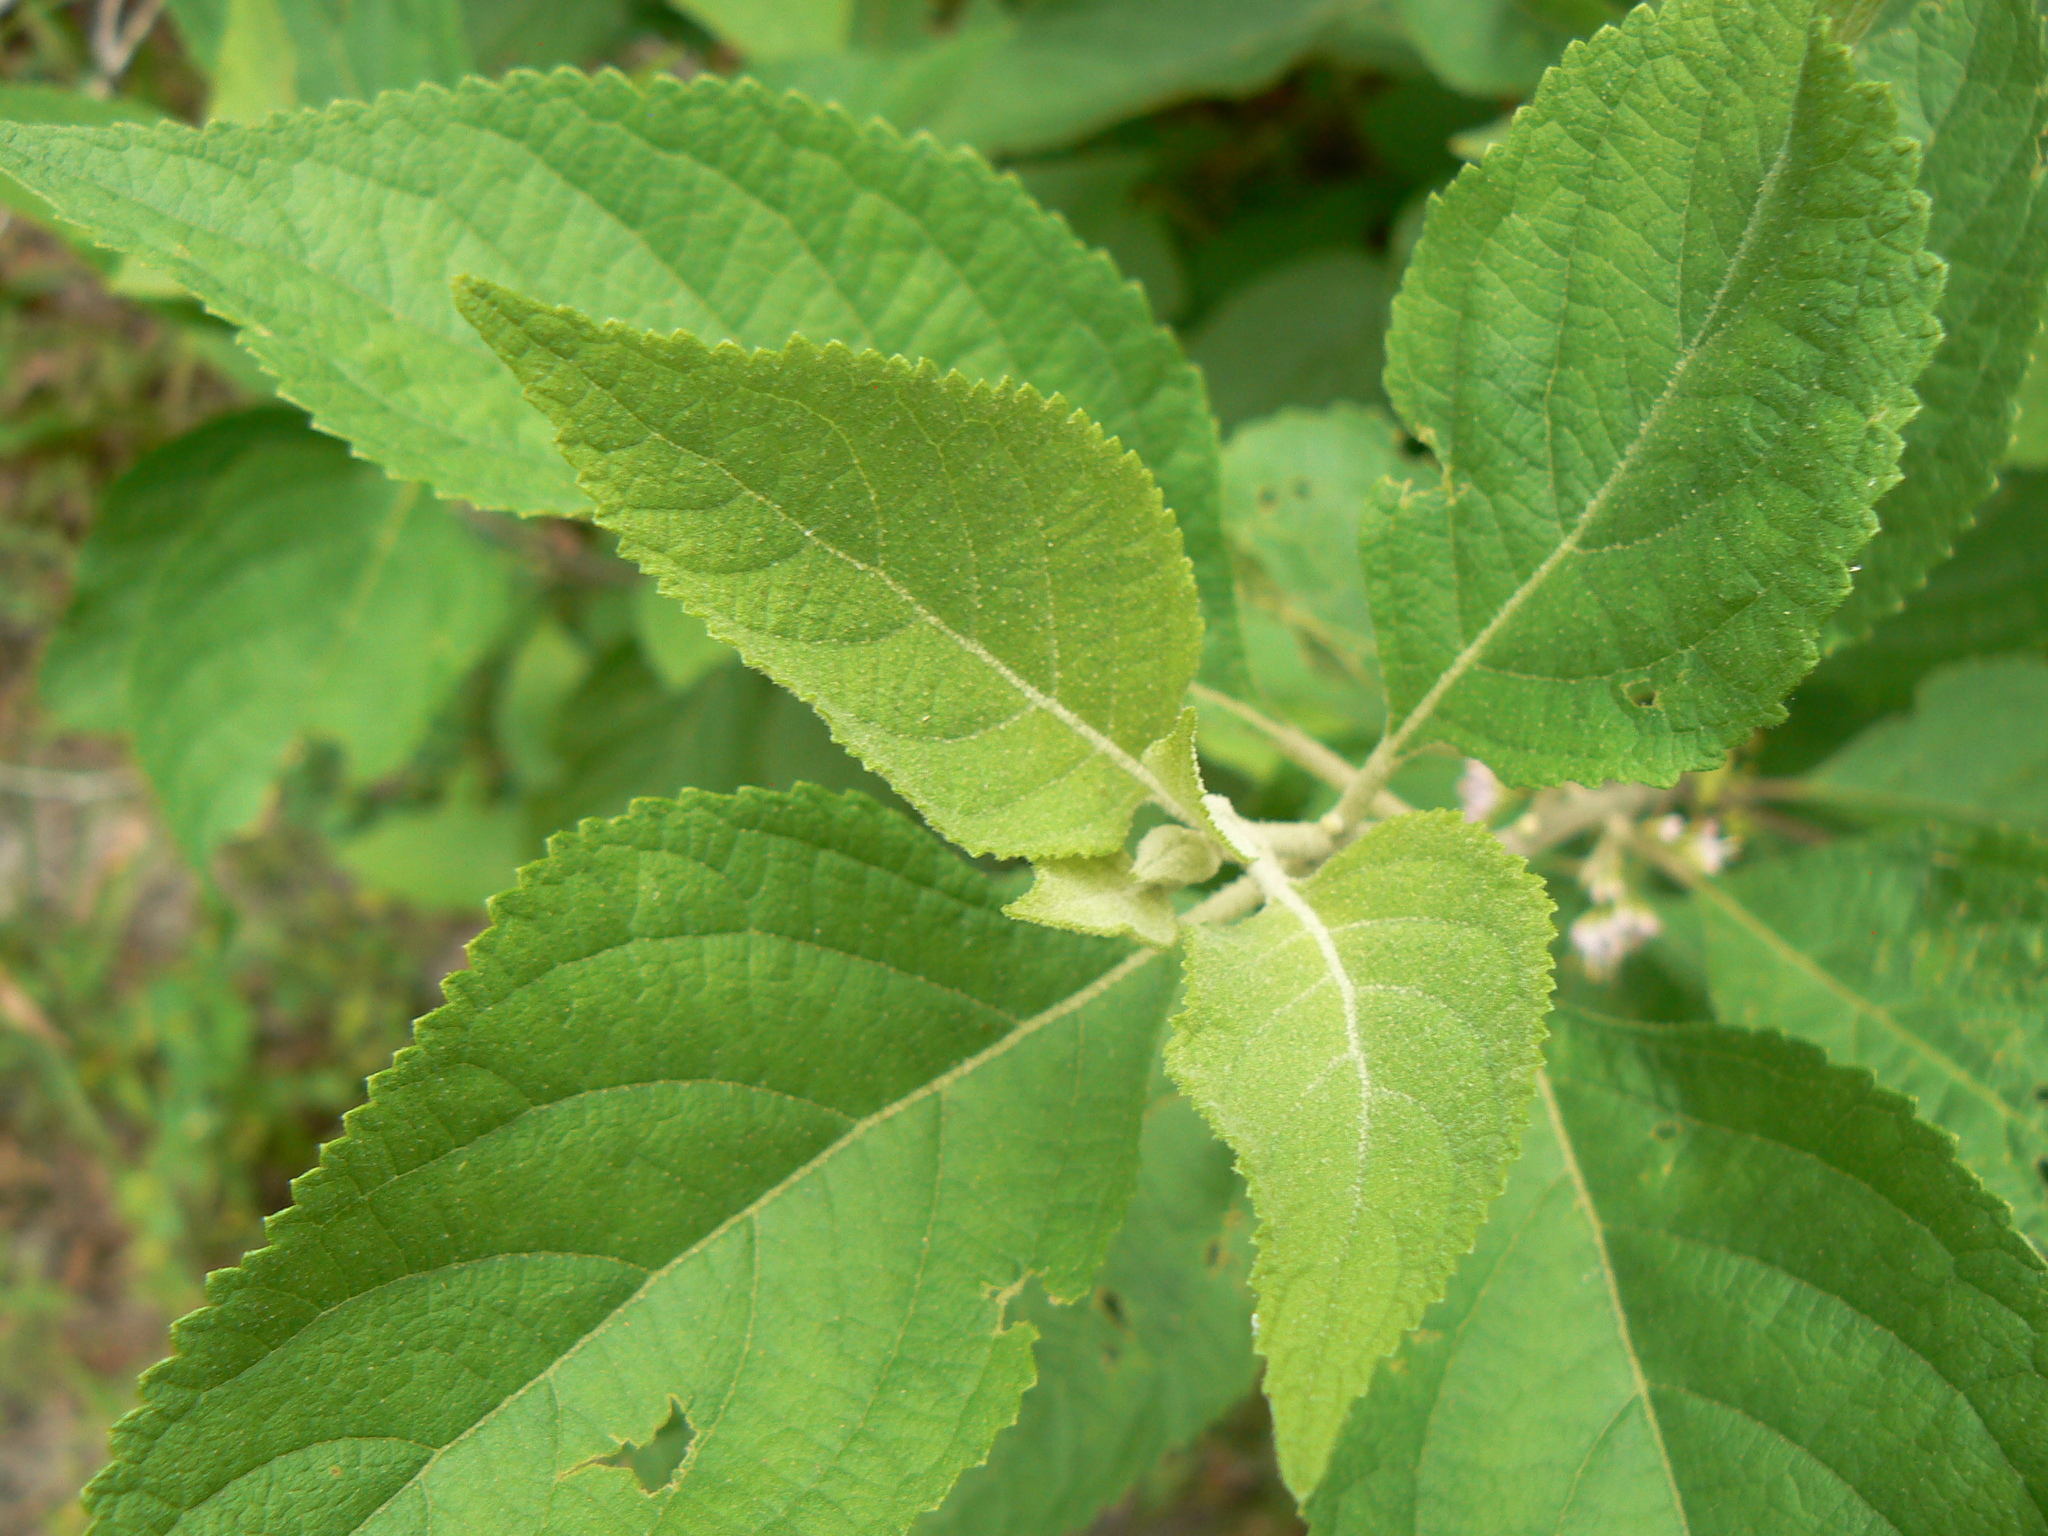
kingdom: Plantae
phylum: Tracheophyta
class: Magnoliopsida
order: Lamiales
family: Lamiaceae
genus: Callicarpa
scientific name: Callicarpa americana
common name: American beautyberry
